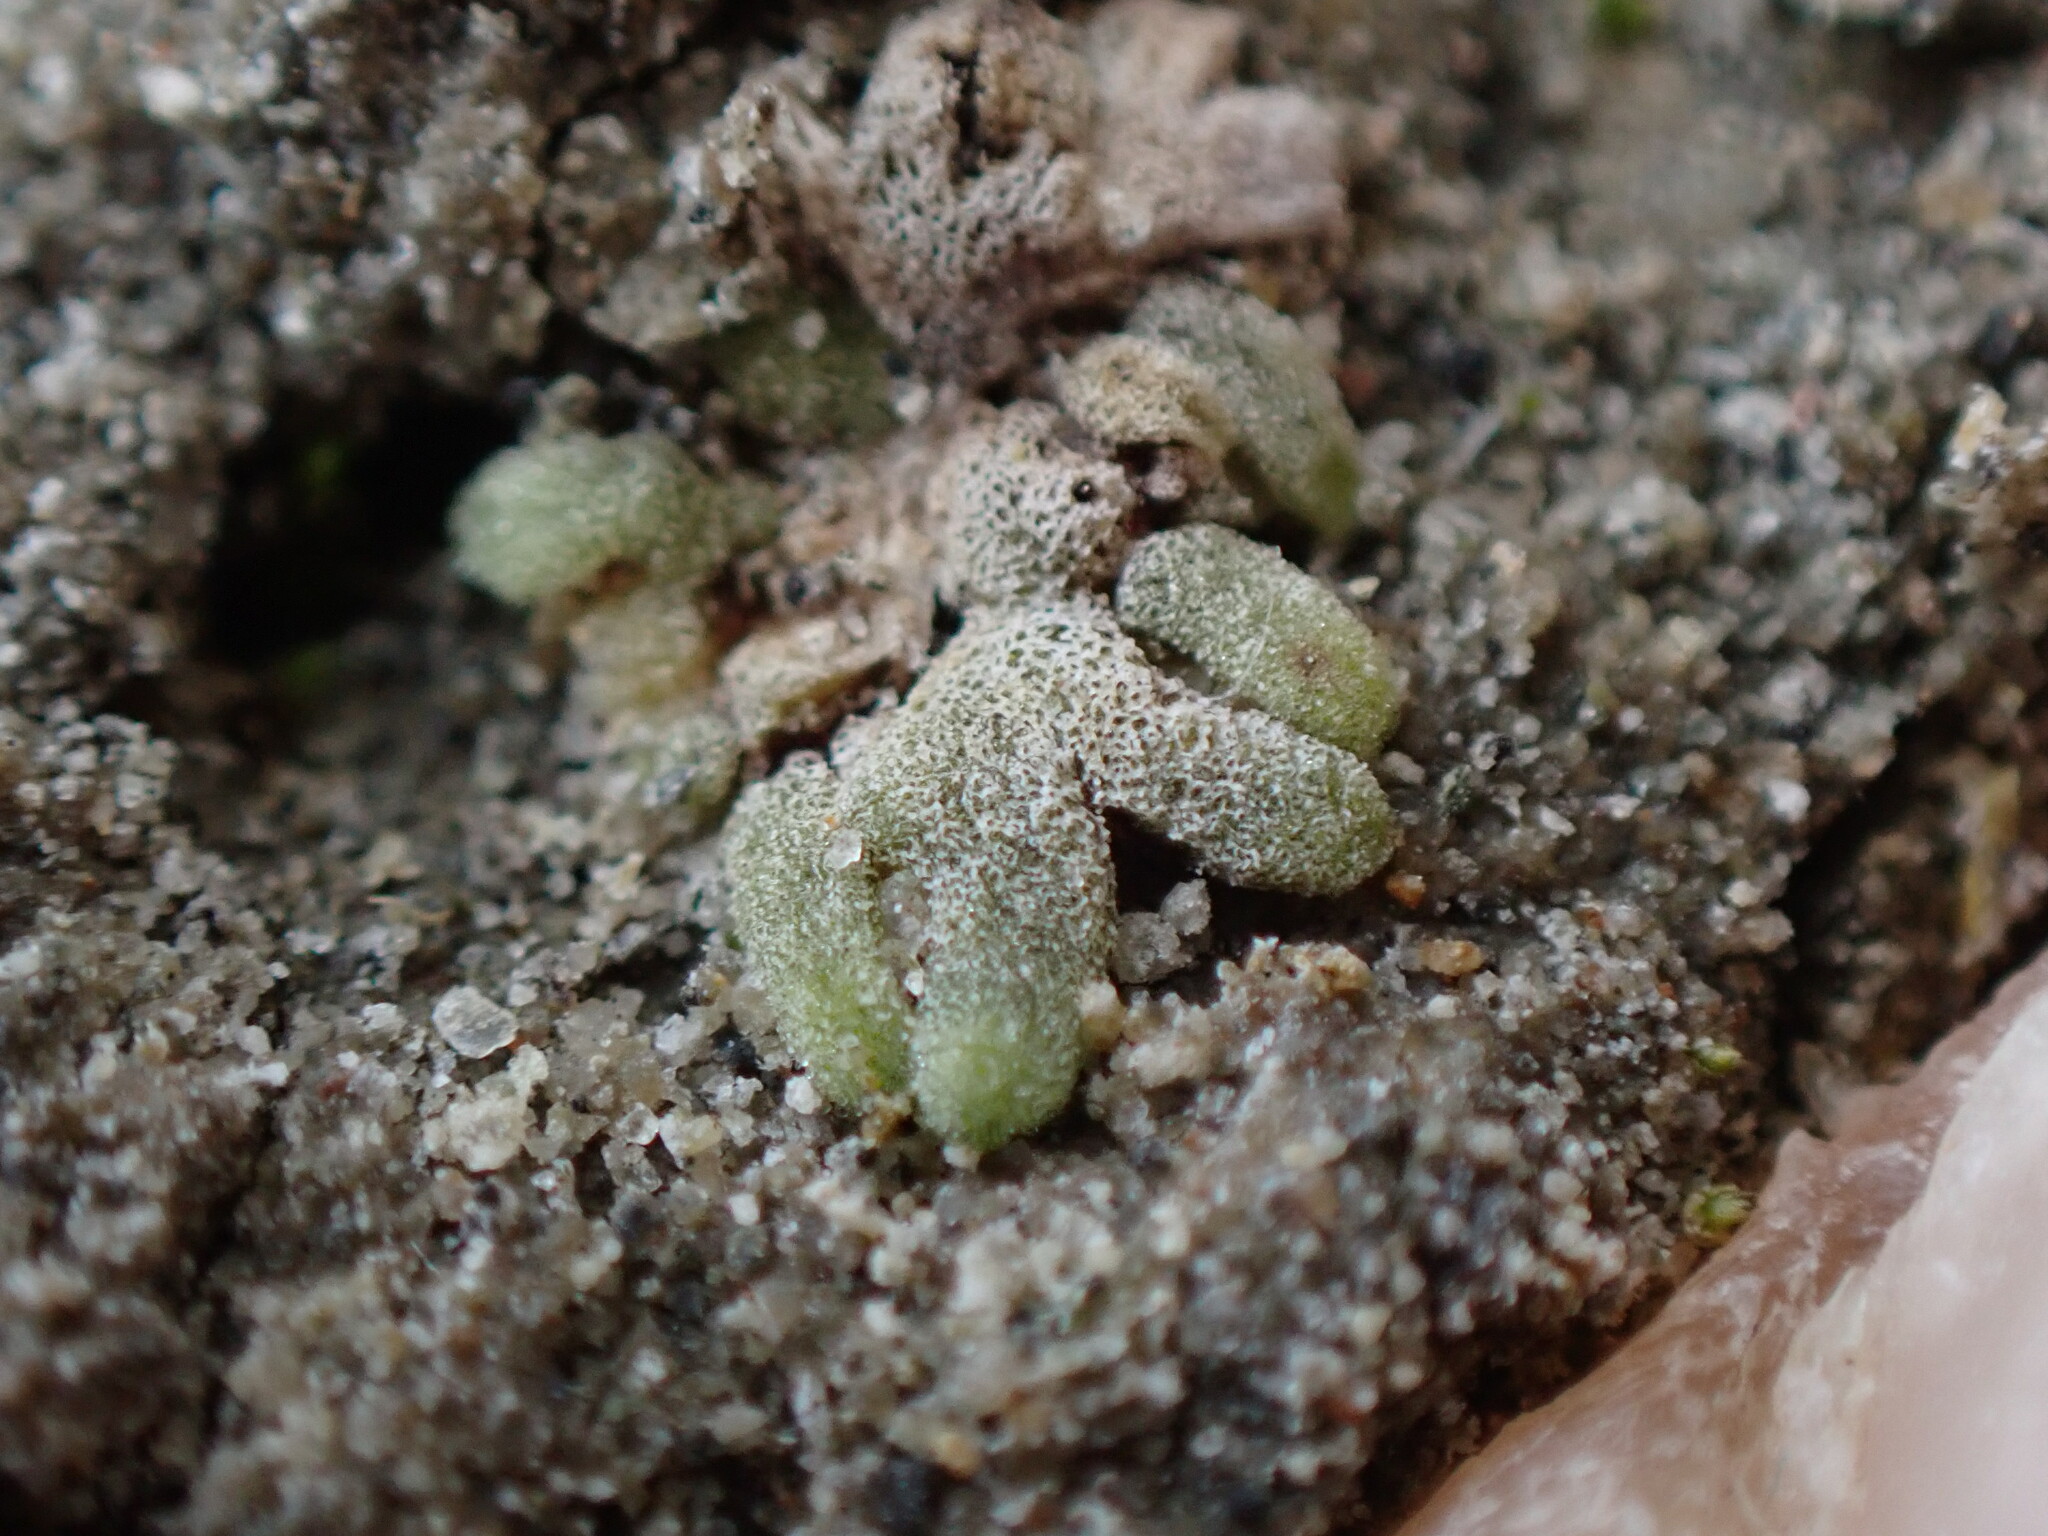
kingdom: Plantae
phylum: Marchantiophyta
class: Marchantiopsida
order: Marchantiales
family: Ricciaceae
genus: Riccia
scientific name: Riccia frostii
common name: Frost s crystalwort
